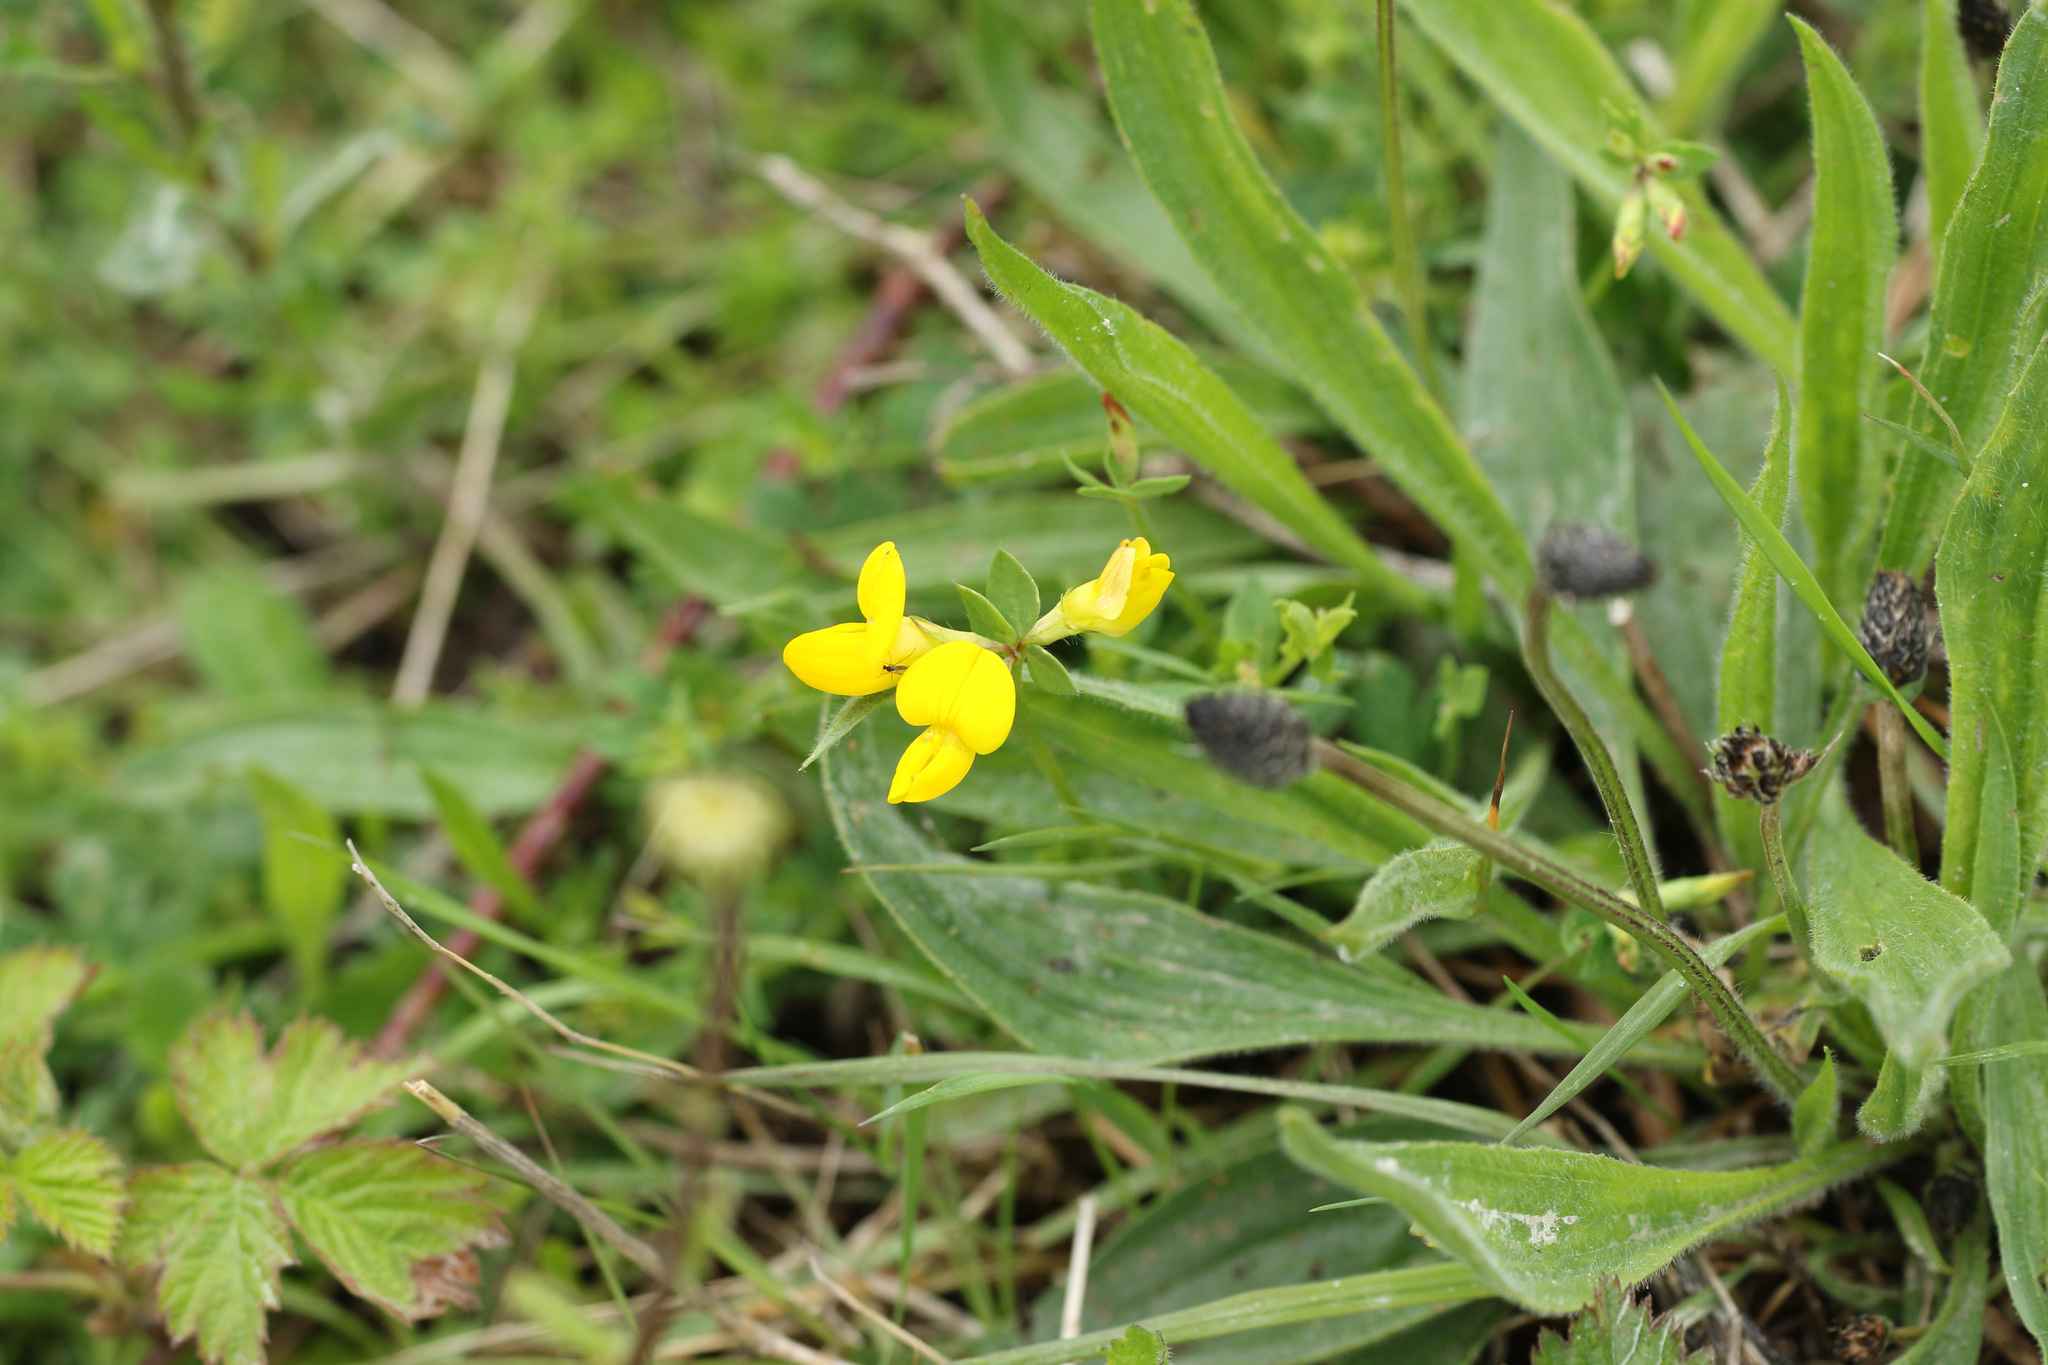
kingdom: Plantae
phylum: Tracheophyta
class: Magnoliopsida
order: Fabales
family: Fabaceae
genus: Lotus
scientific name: Lotus corniculatus
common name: Common bird's-foot-trefoil
